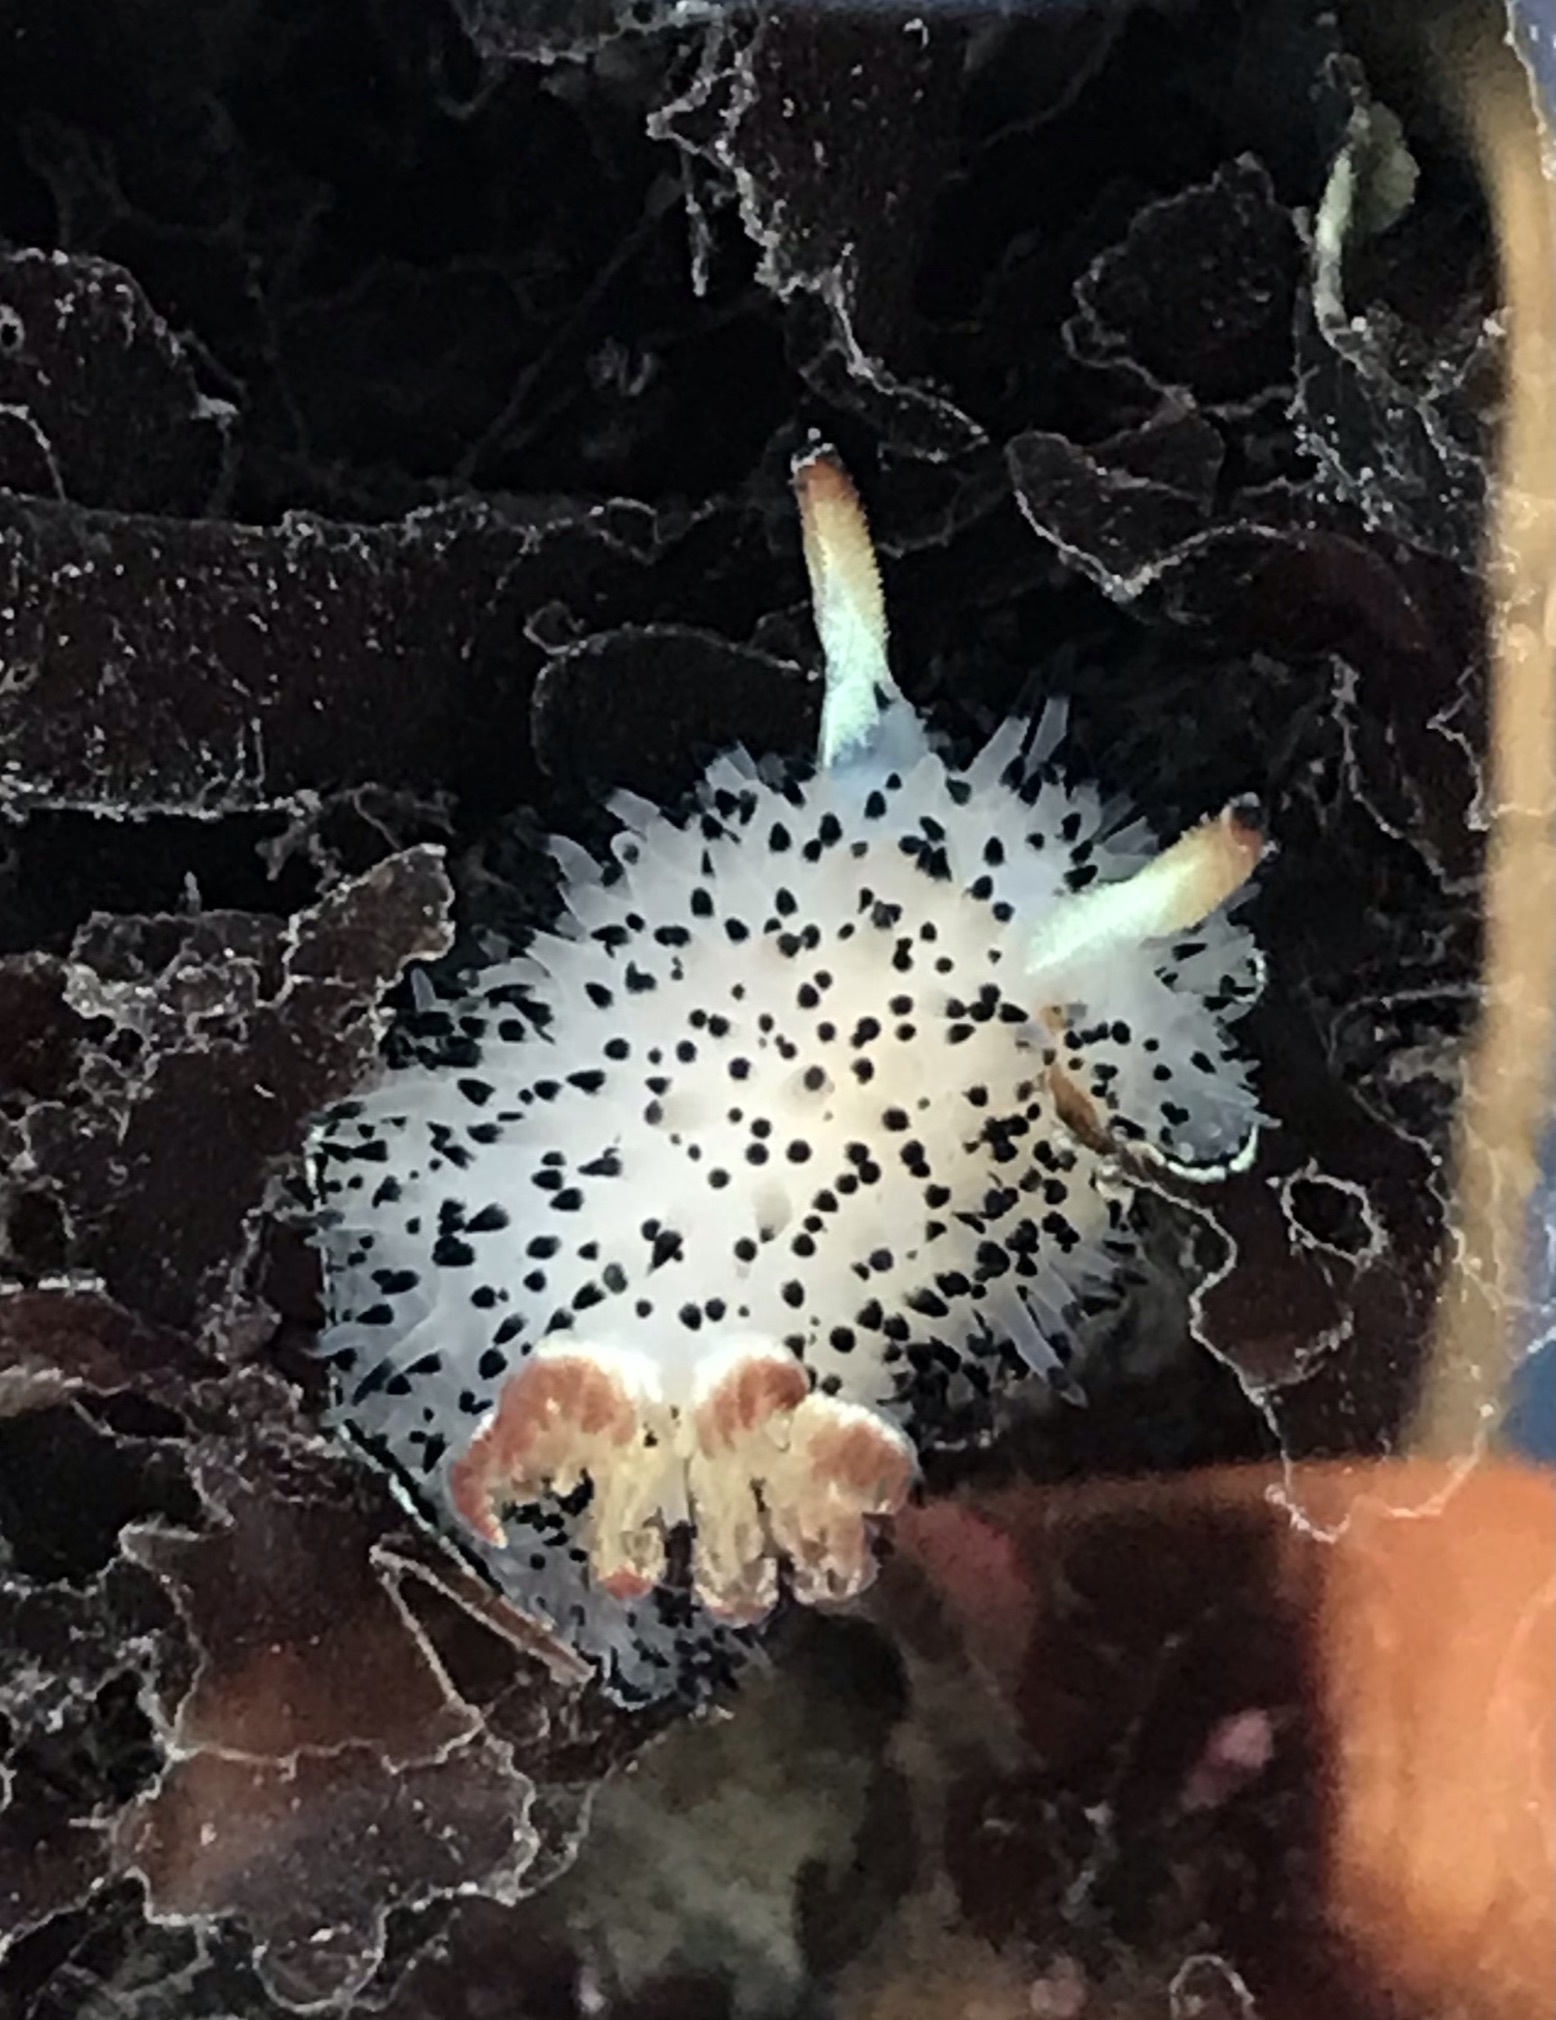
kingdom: Animalia
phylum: Mollusca
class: Gastropoda
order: Nudibranchia
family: Onchidorididae
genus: Acanthodoris
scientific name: Acanthodoris rhodoceras
